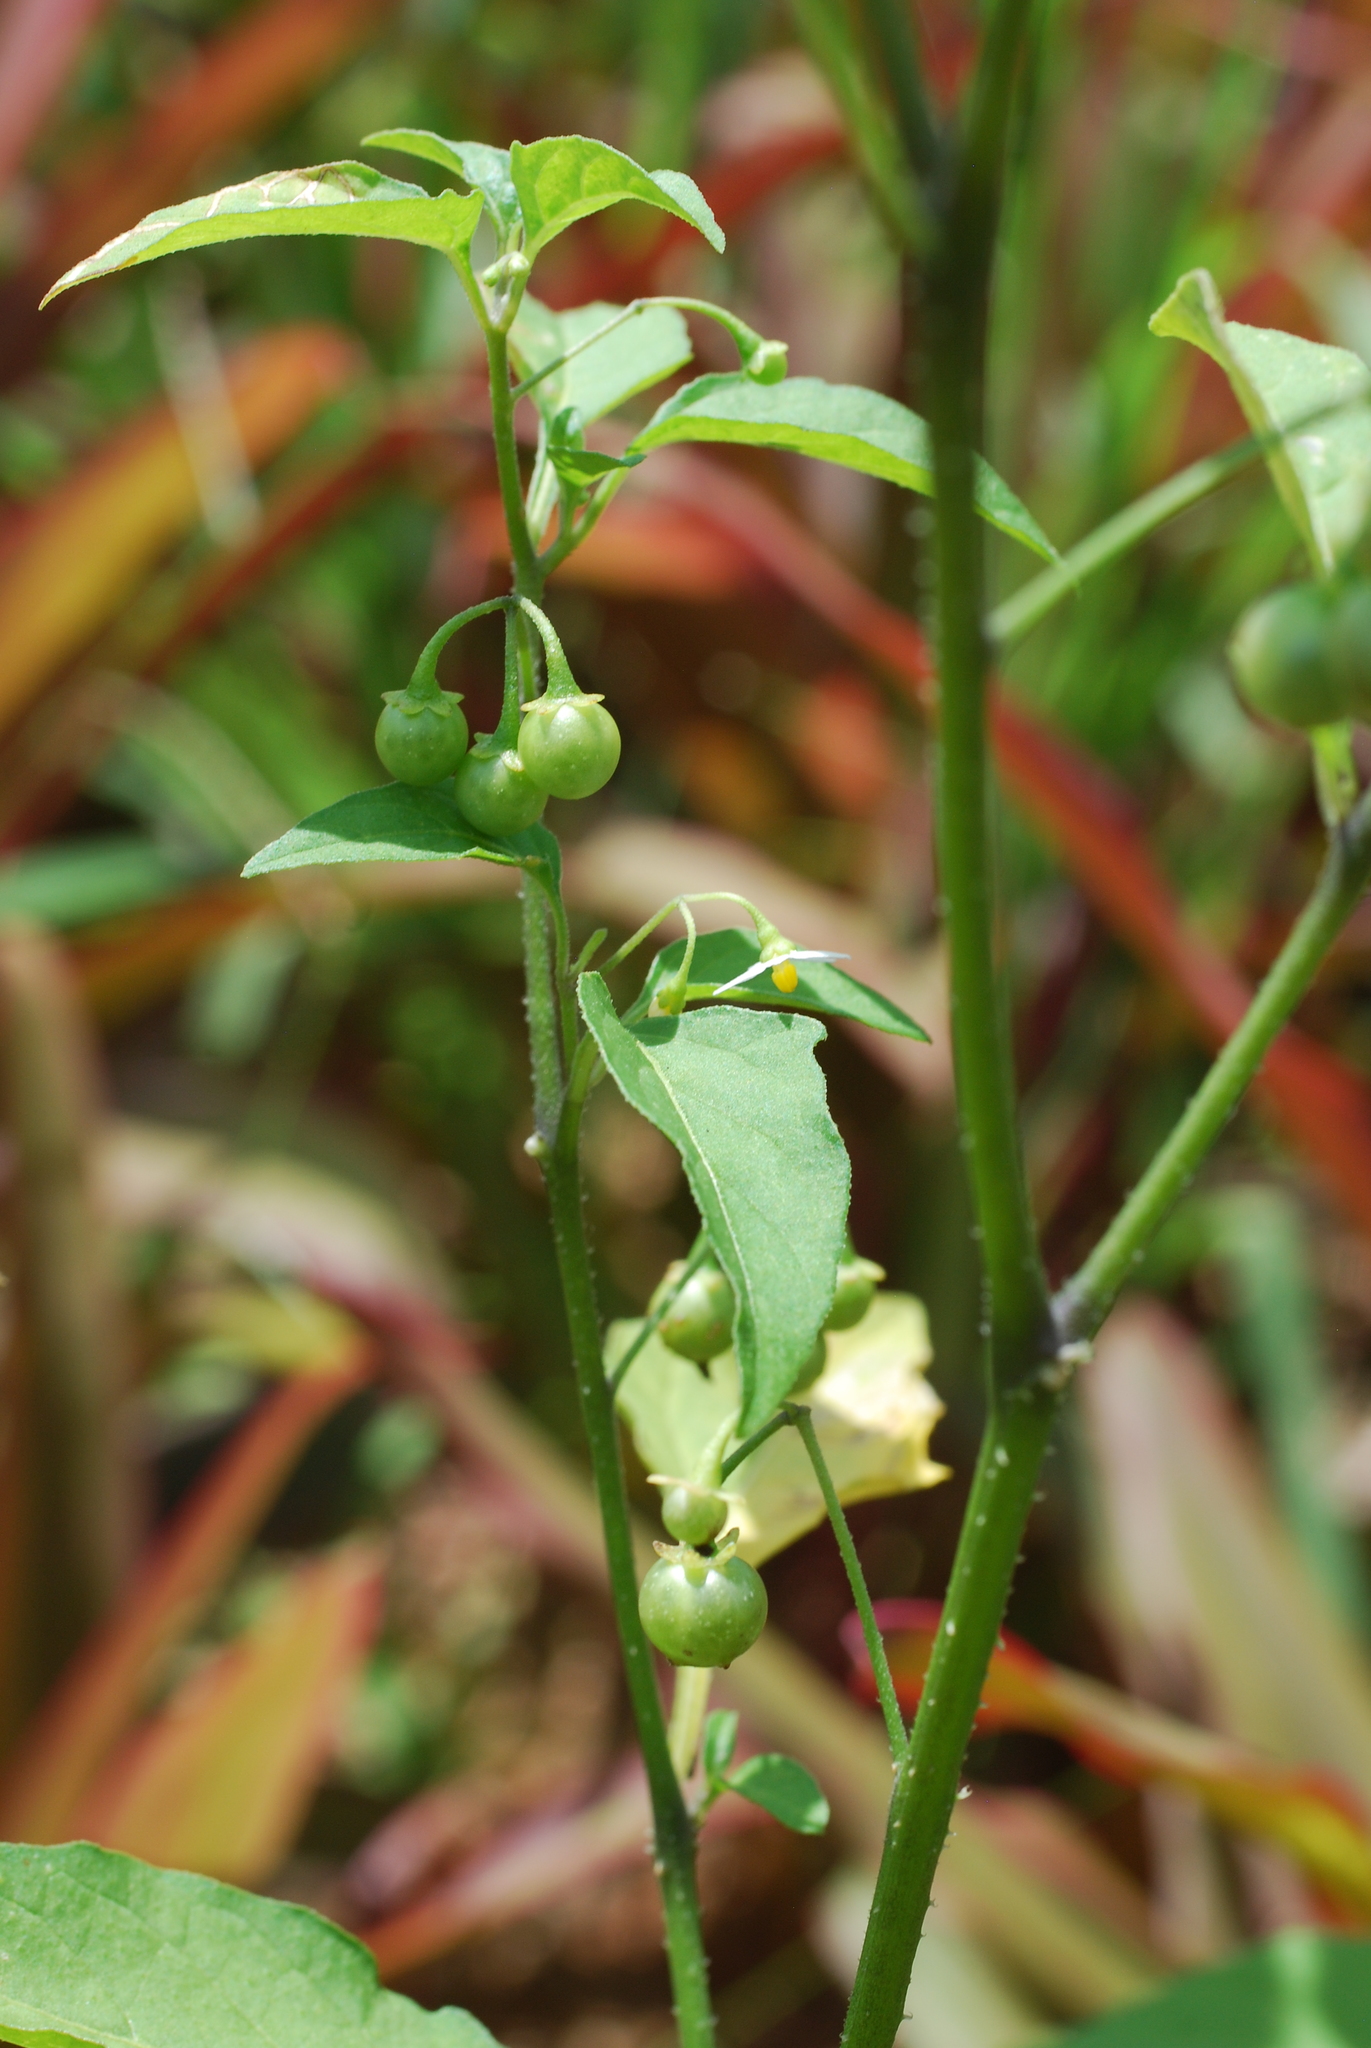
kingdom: Plantae
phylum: Tracheophyta
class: Magnoliopsida
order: Solanales
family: Solanaceae
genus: Solanum
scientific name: Solanum americanum
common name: American black nightshade
